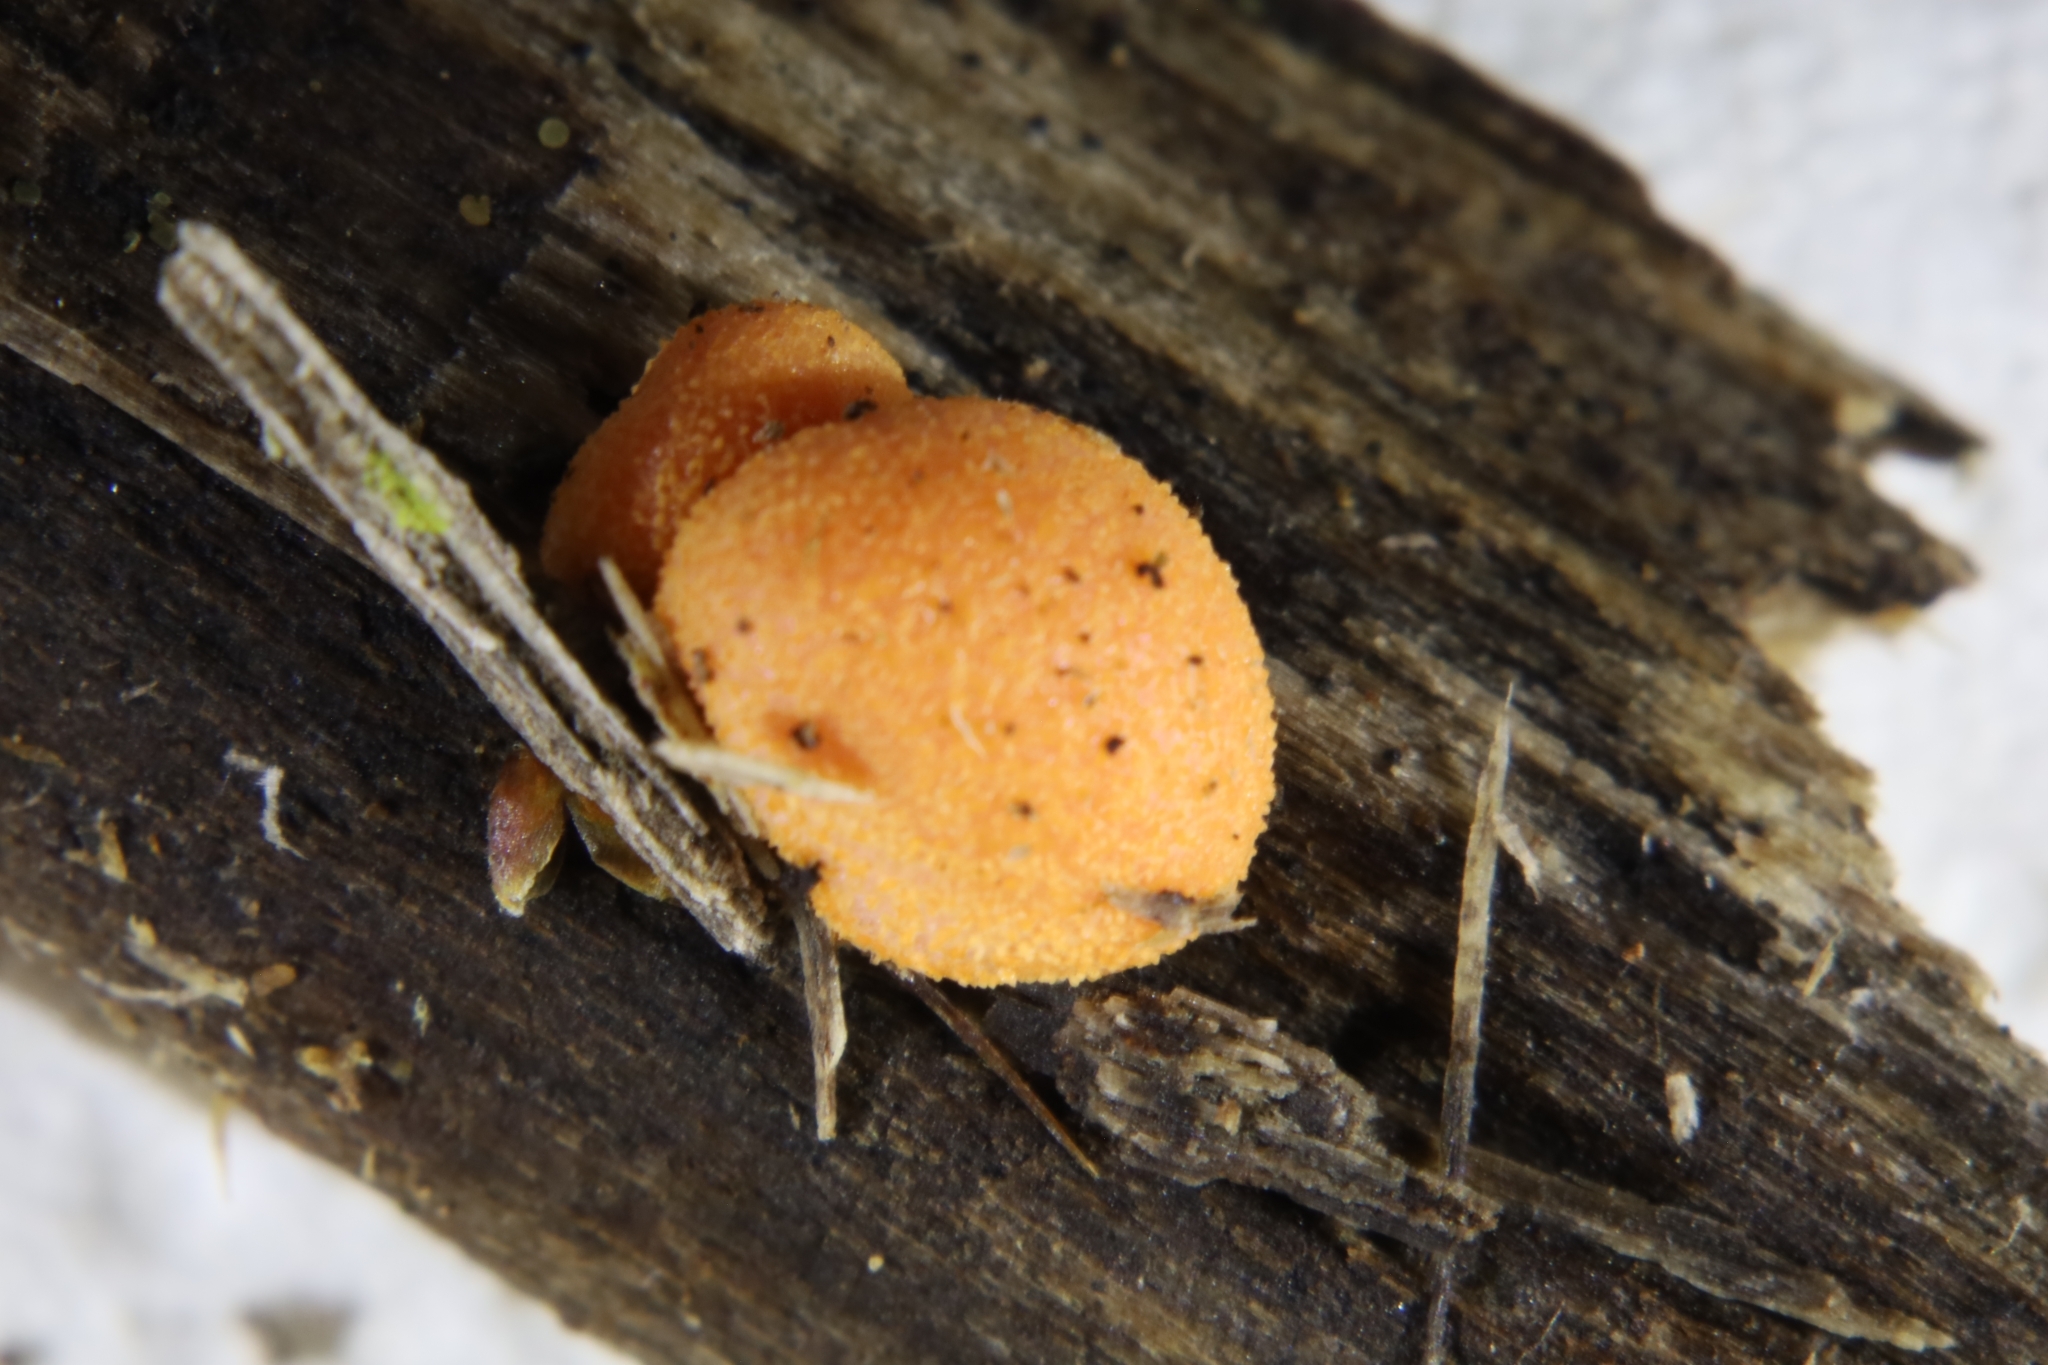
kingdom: Protozoa
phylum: Mycetozoa
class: Myxomycetes
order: Cribrariales
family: Tubiferaceae
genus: Lycogala
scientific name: Lycogala epidendrum
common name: Wolf's milk
